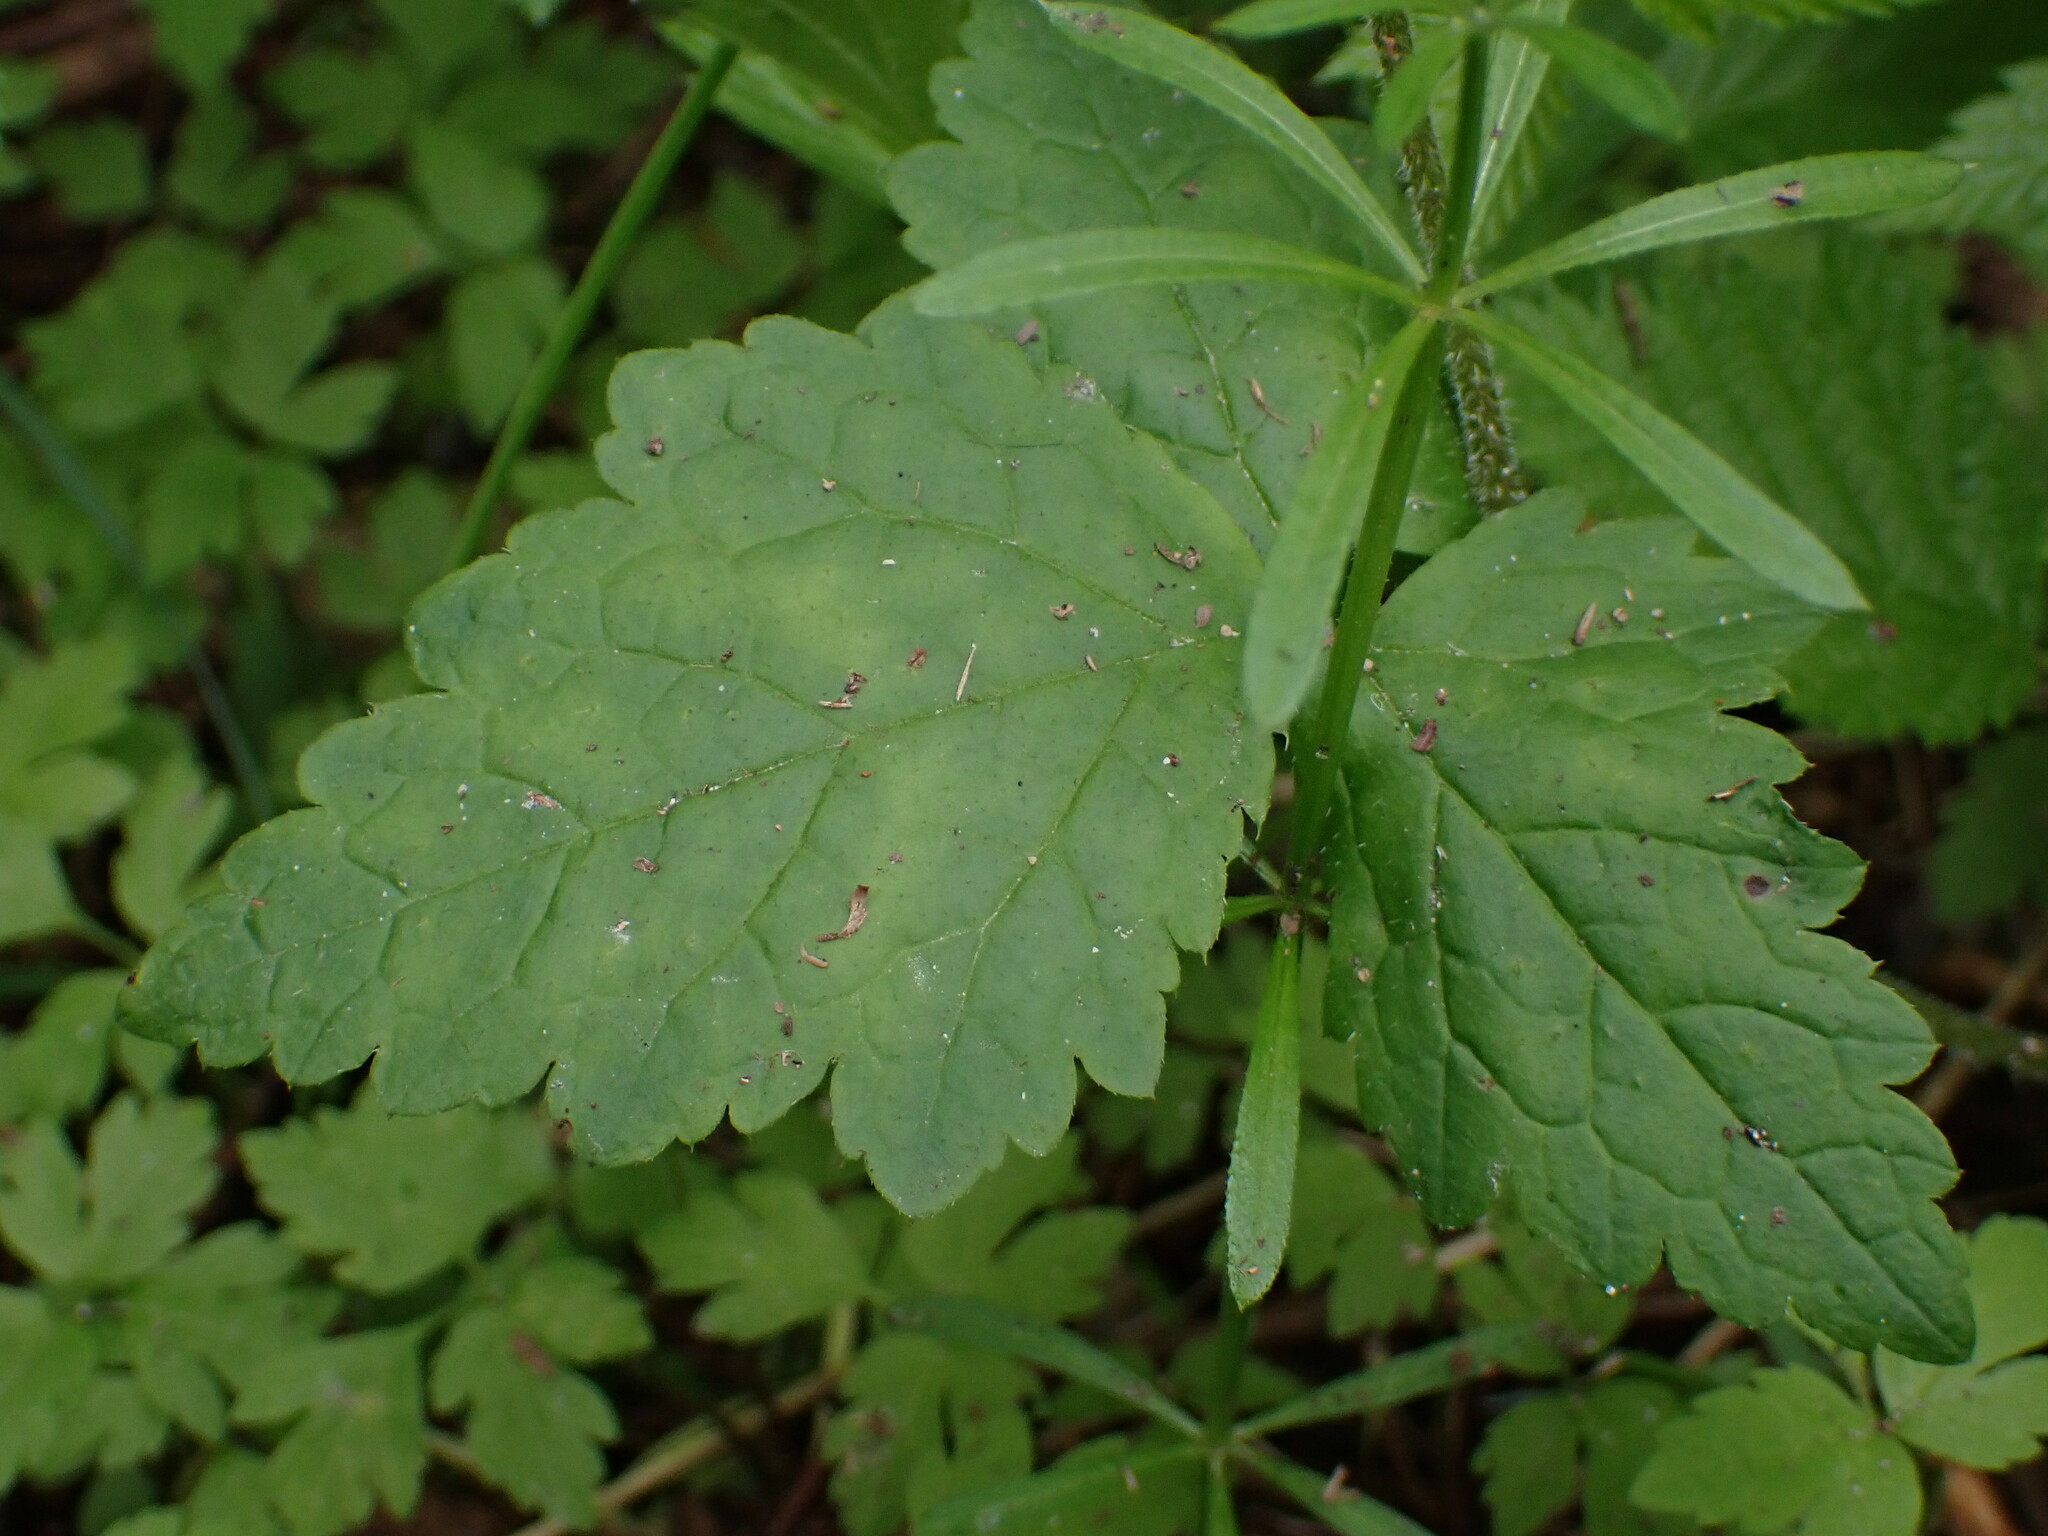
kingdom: Plantae
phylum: Tracheophyta
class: Magnoliopsida
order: Saxifragales
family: Saxifragaceae
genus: Tiarella
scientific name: Tiarella trifoliata
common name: Sugar-scoop
